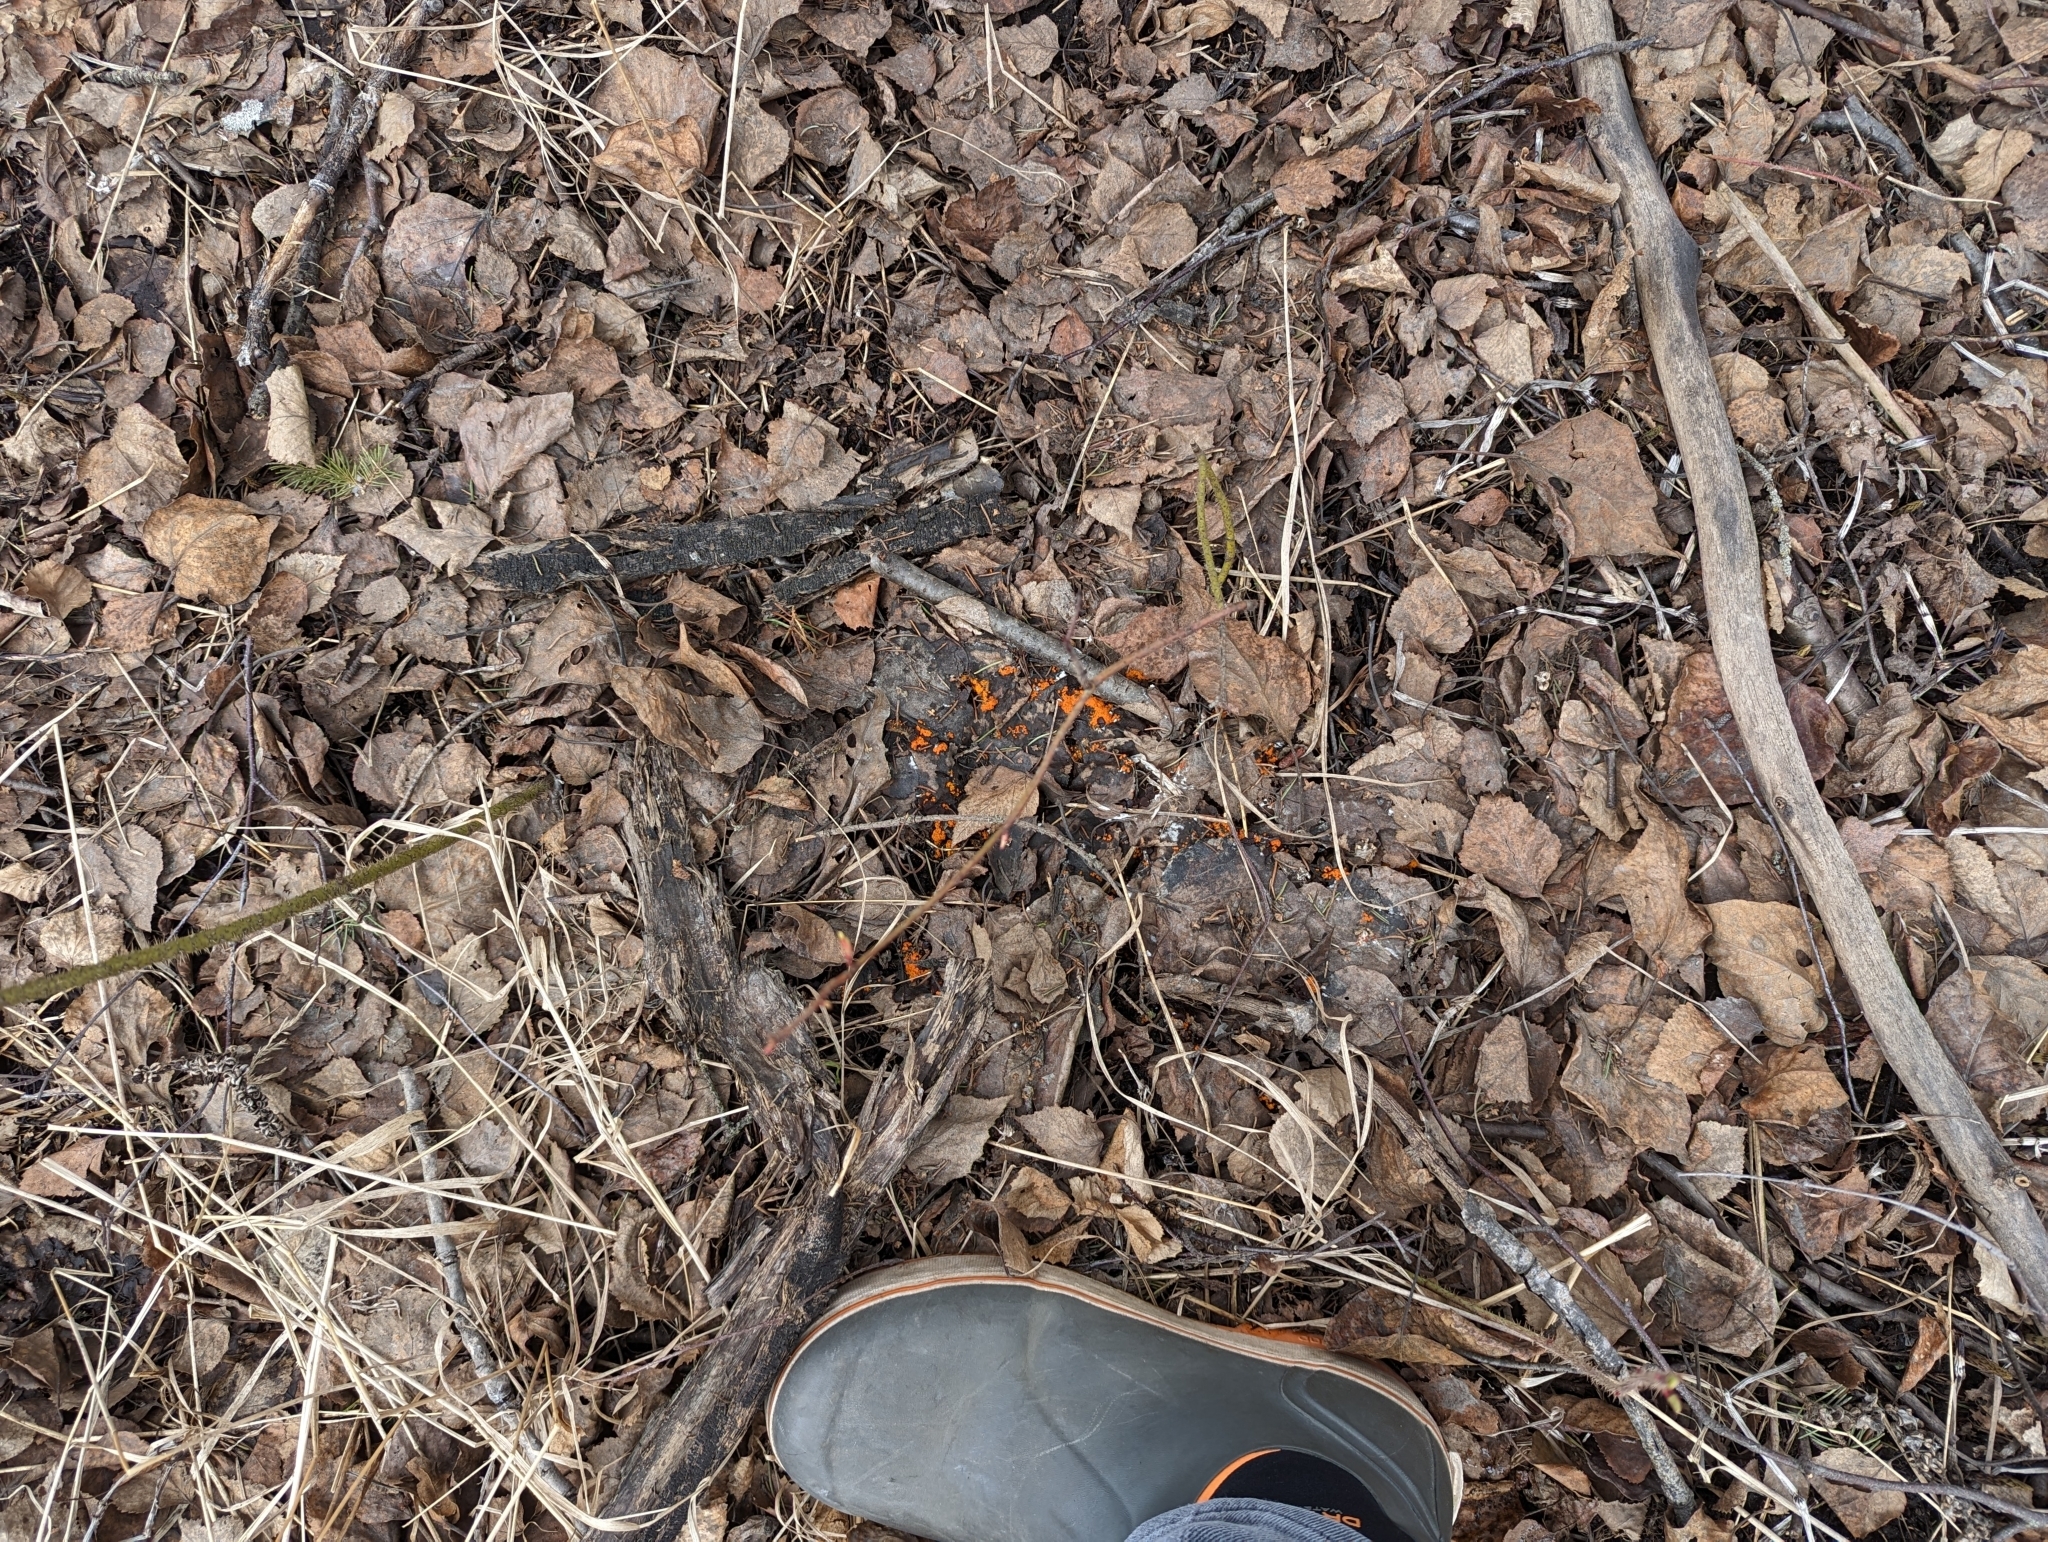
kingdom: Fungi
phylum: Ascomycota
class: Pezizomycetes
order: Pezizales
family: Pyronemataceae
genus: Byssonectria
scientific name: Byssonectria terrestris
